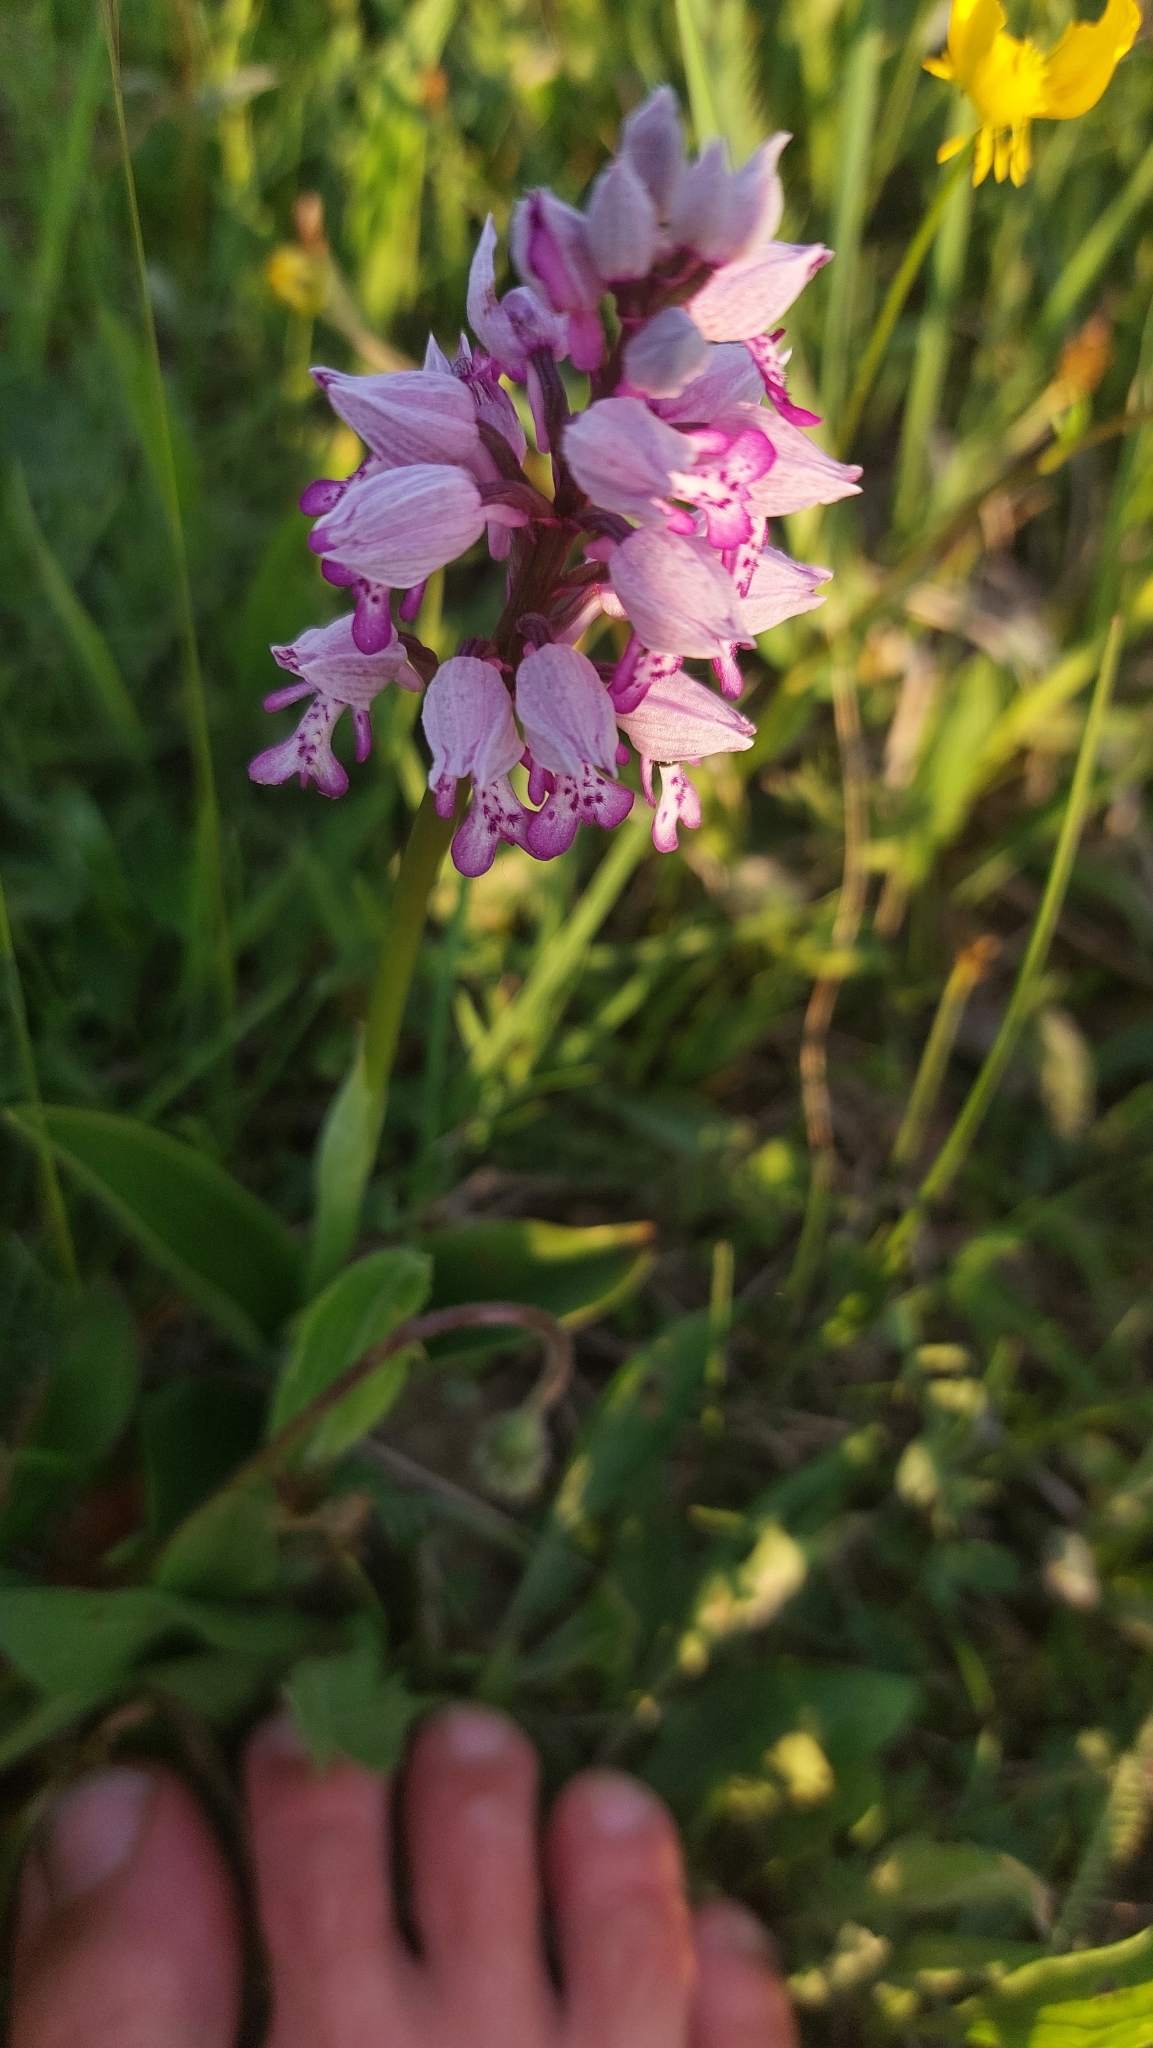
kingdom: Plantae
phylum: Tracheophyta
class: Liliopsida
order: Asparagales
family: Orchidaceae
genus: Orchis
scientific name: Orchis militaris
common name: Military orchid
